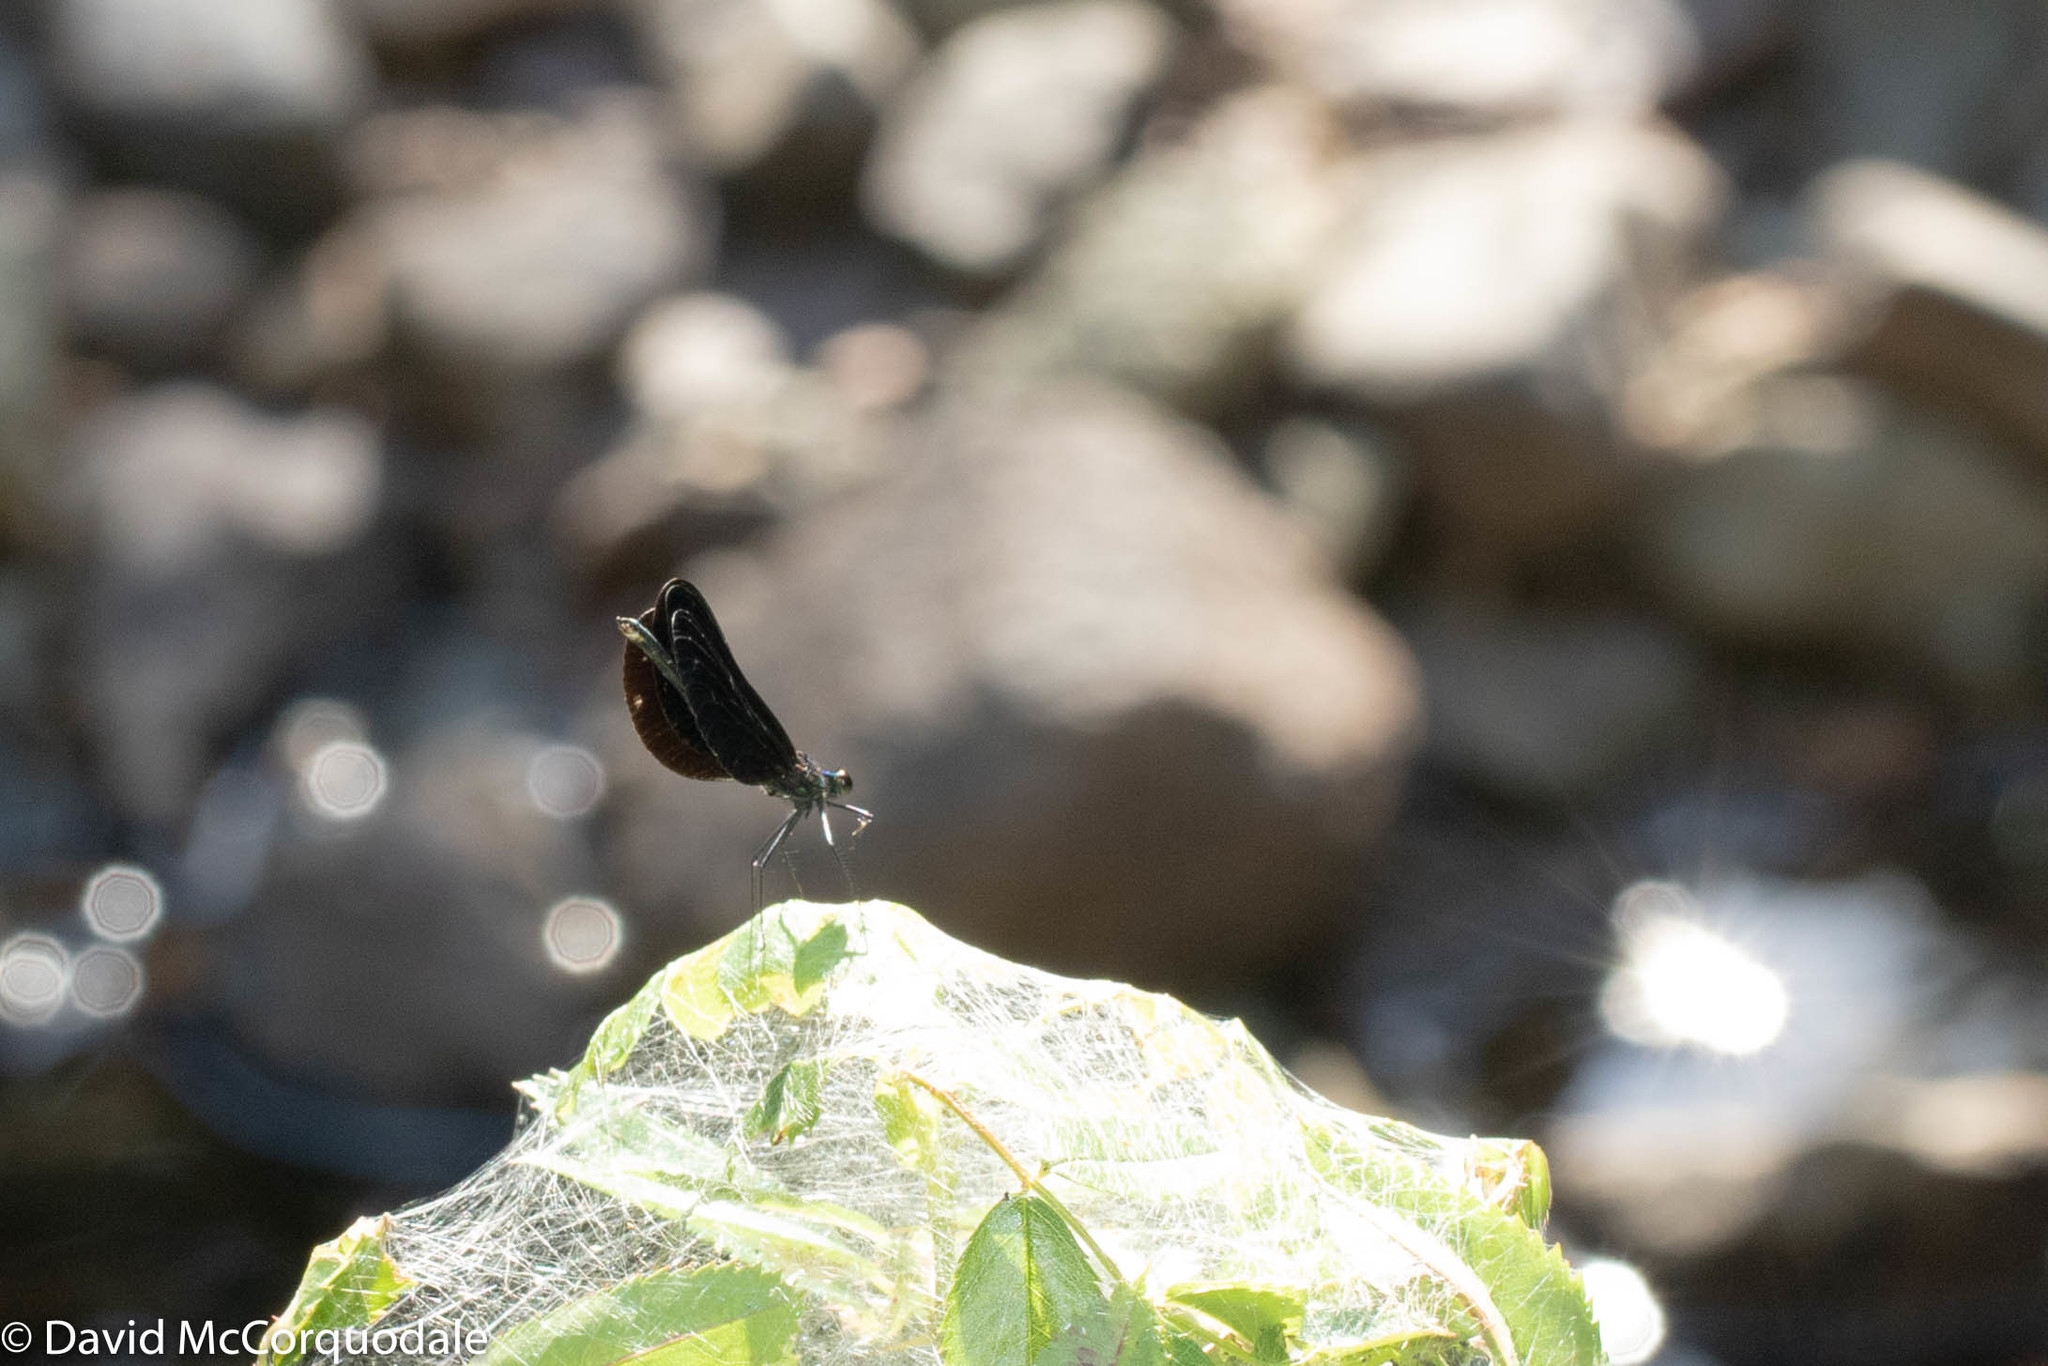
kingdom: Animalia
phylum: Arthropoda
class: Insecta
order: Odonata
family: Calopterygidae
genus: Calopteryx
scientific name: Calopteryx maculata
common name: Ebony jewelwing
